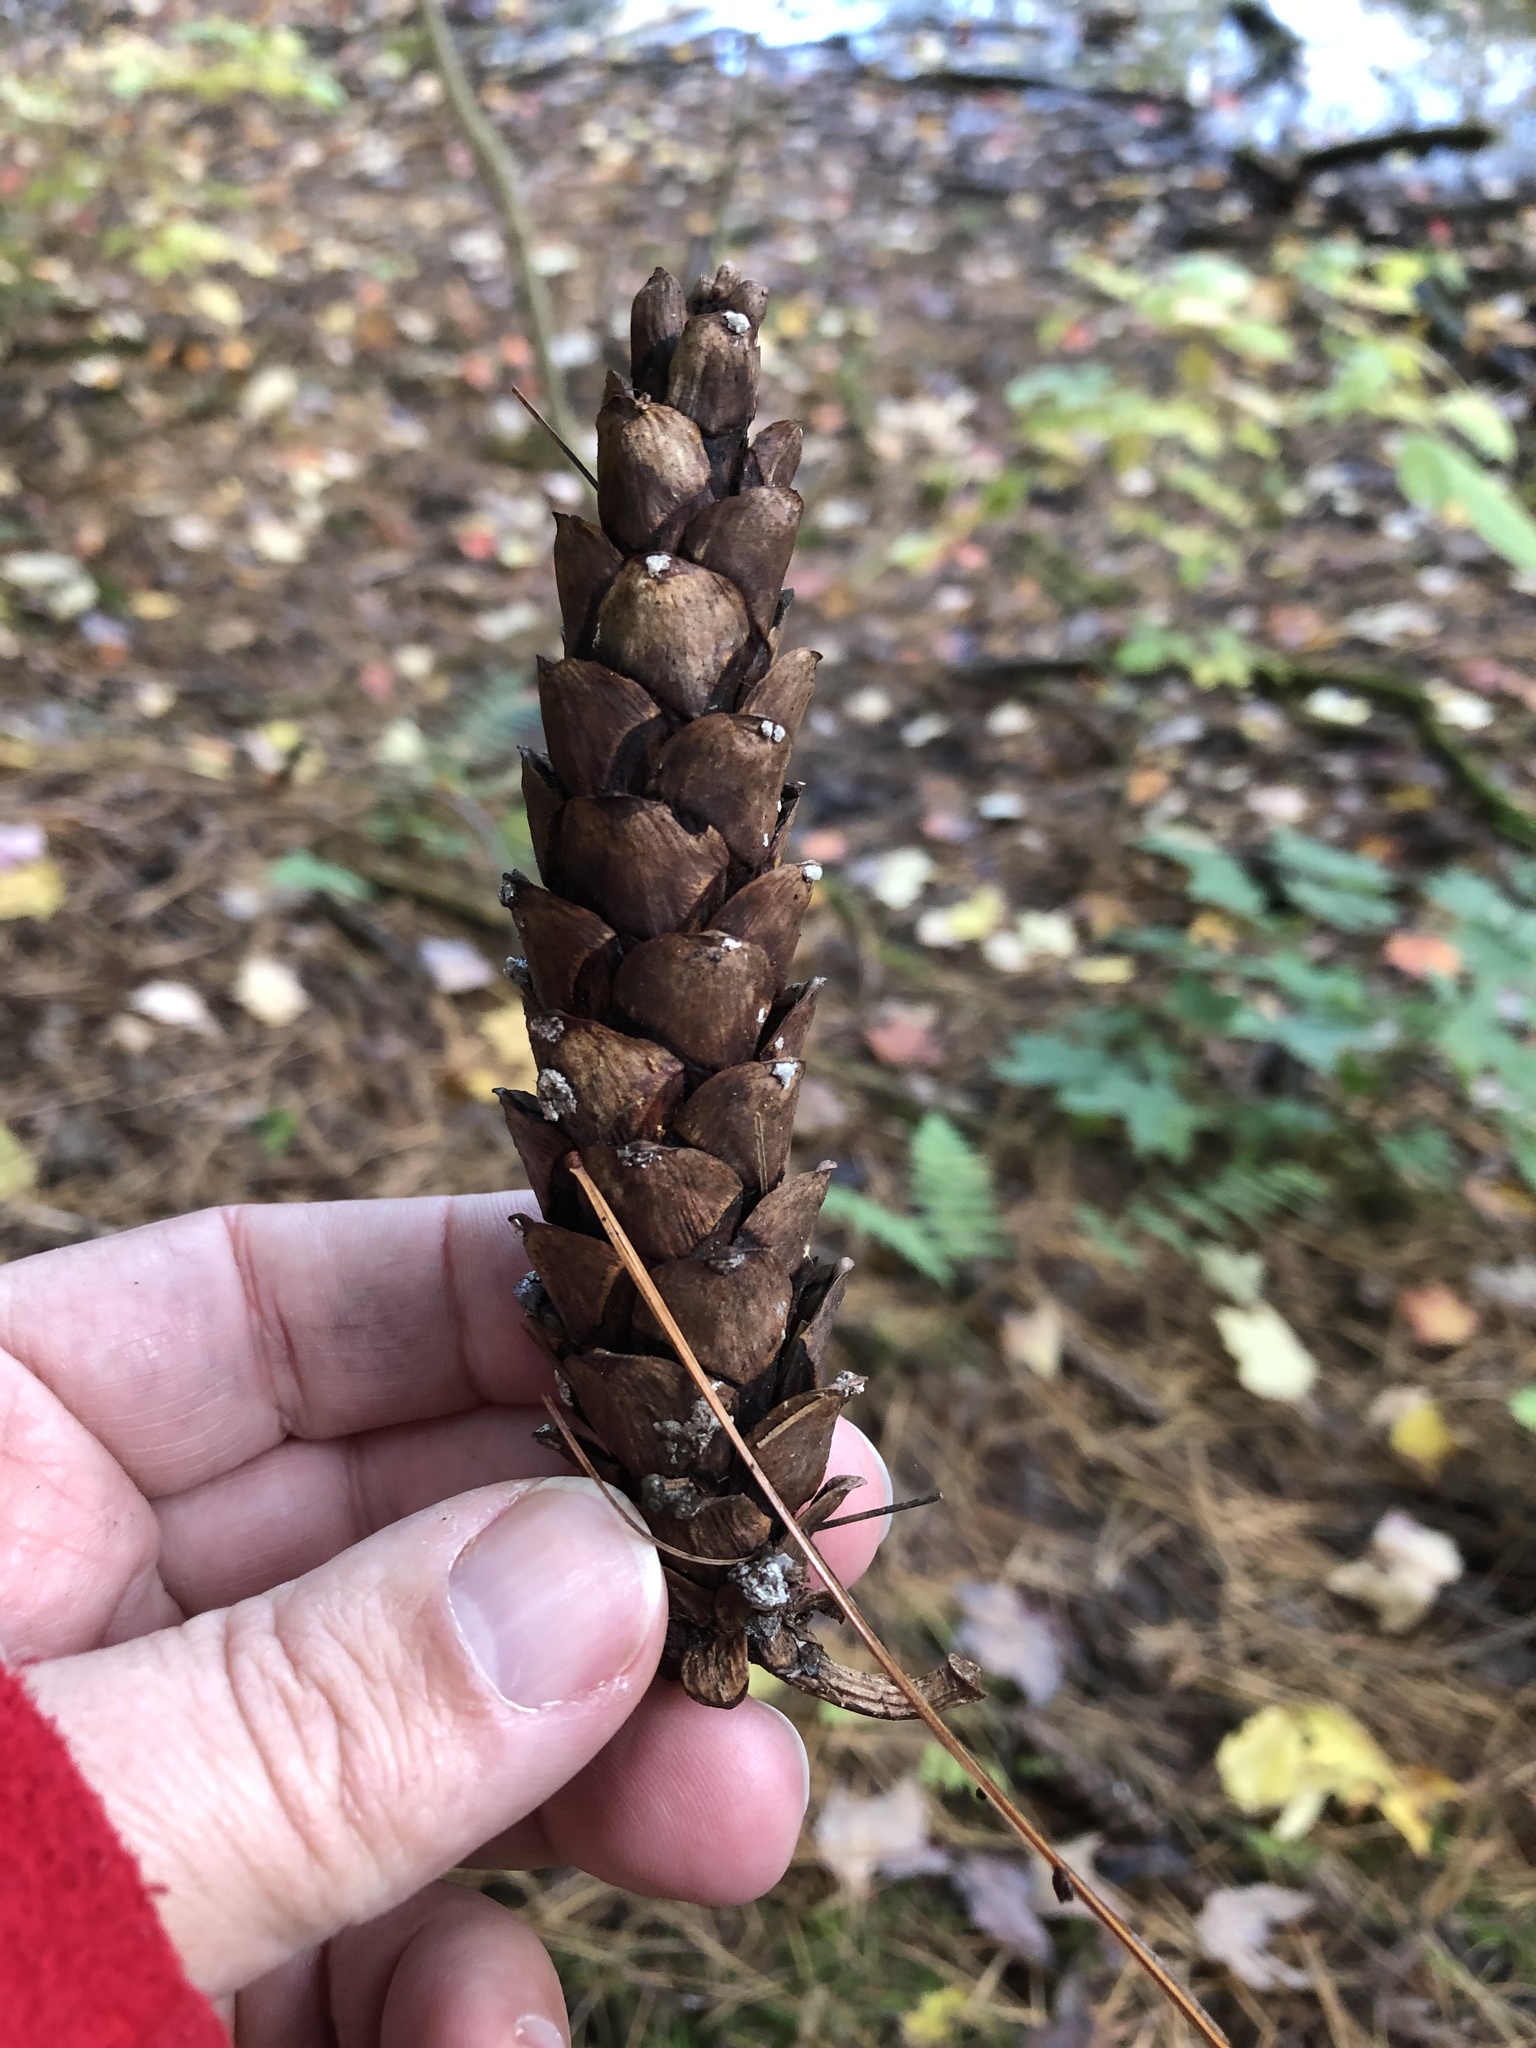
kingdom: Plantae
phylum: Tracheophyta
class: Pinopsida
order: Pinales
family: Pinaceae
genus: Pinus
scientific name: Pinus strobus
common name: Weymouth pine
